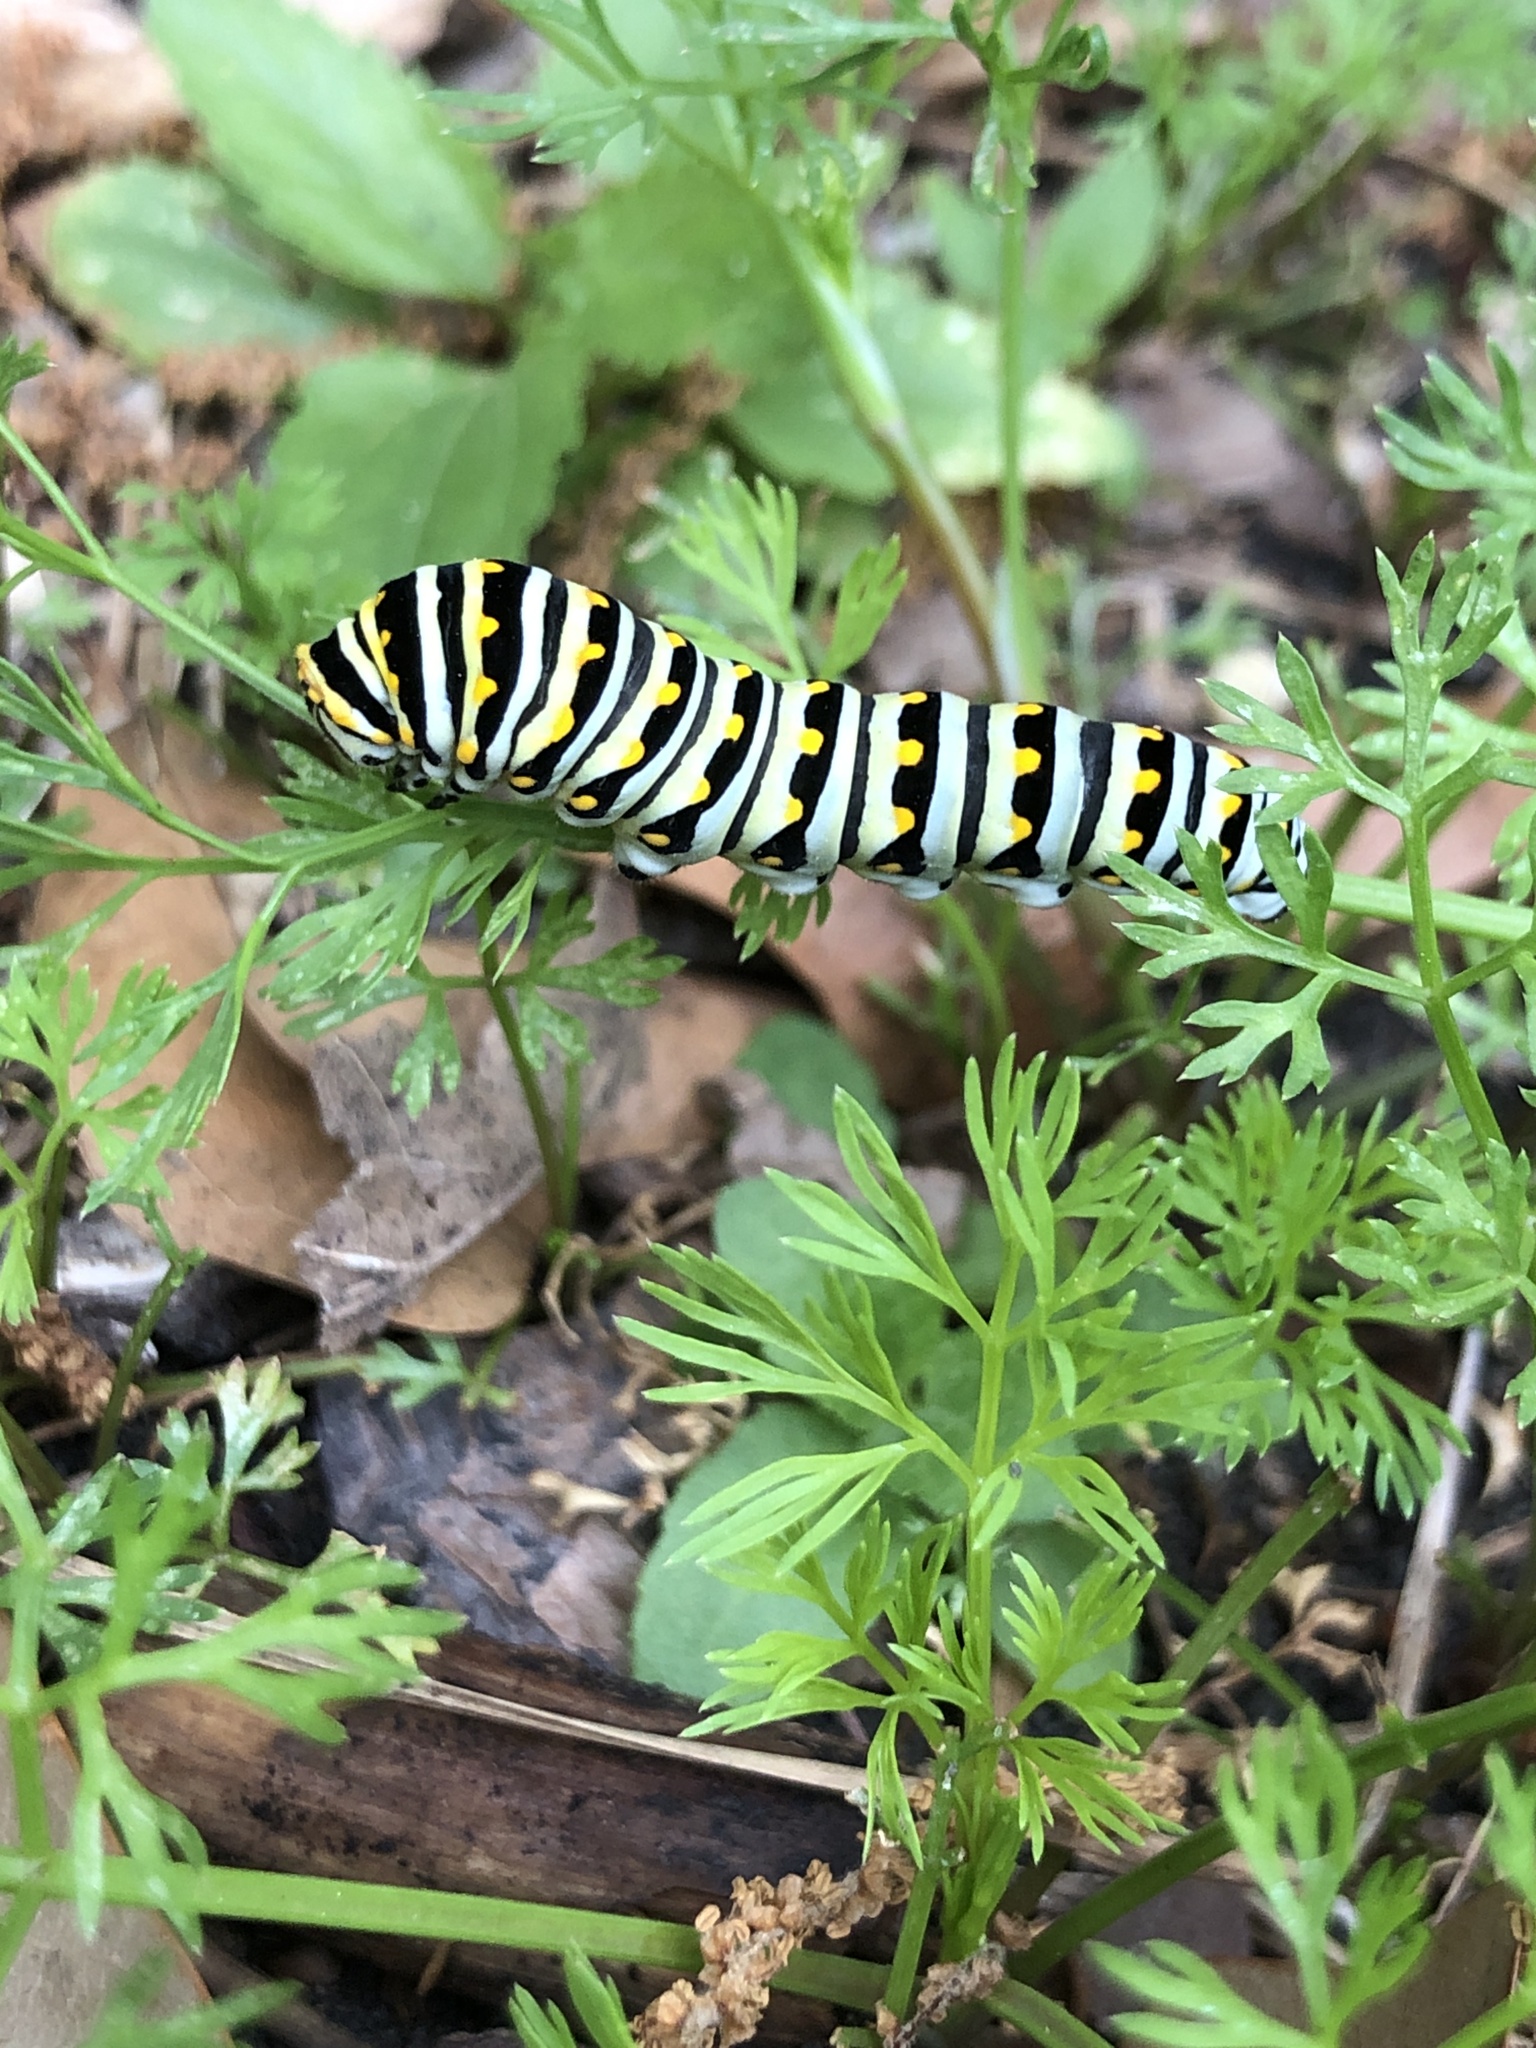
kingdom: Animalia
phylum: Arthropoda
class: Insecta
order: Lepidoptera
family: Papilionidae
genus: Papilio
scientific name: Papilio polyxenes
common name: Black swallowtail
